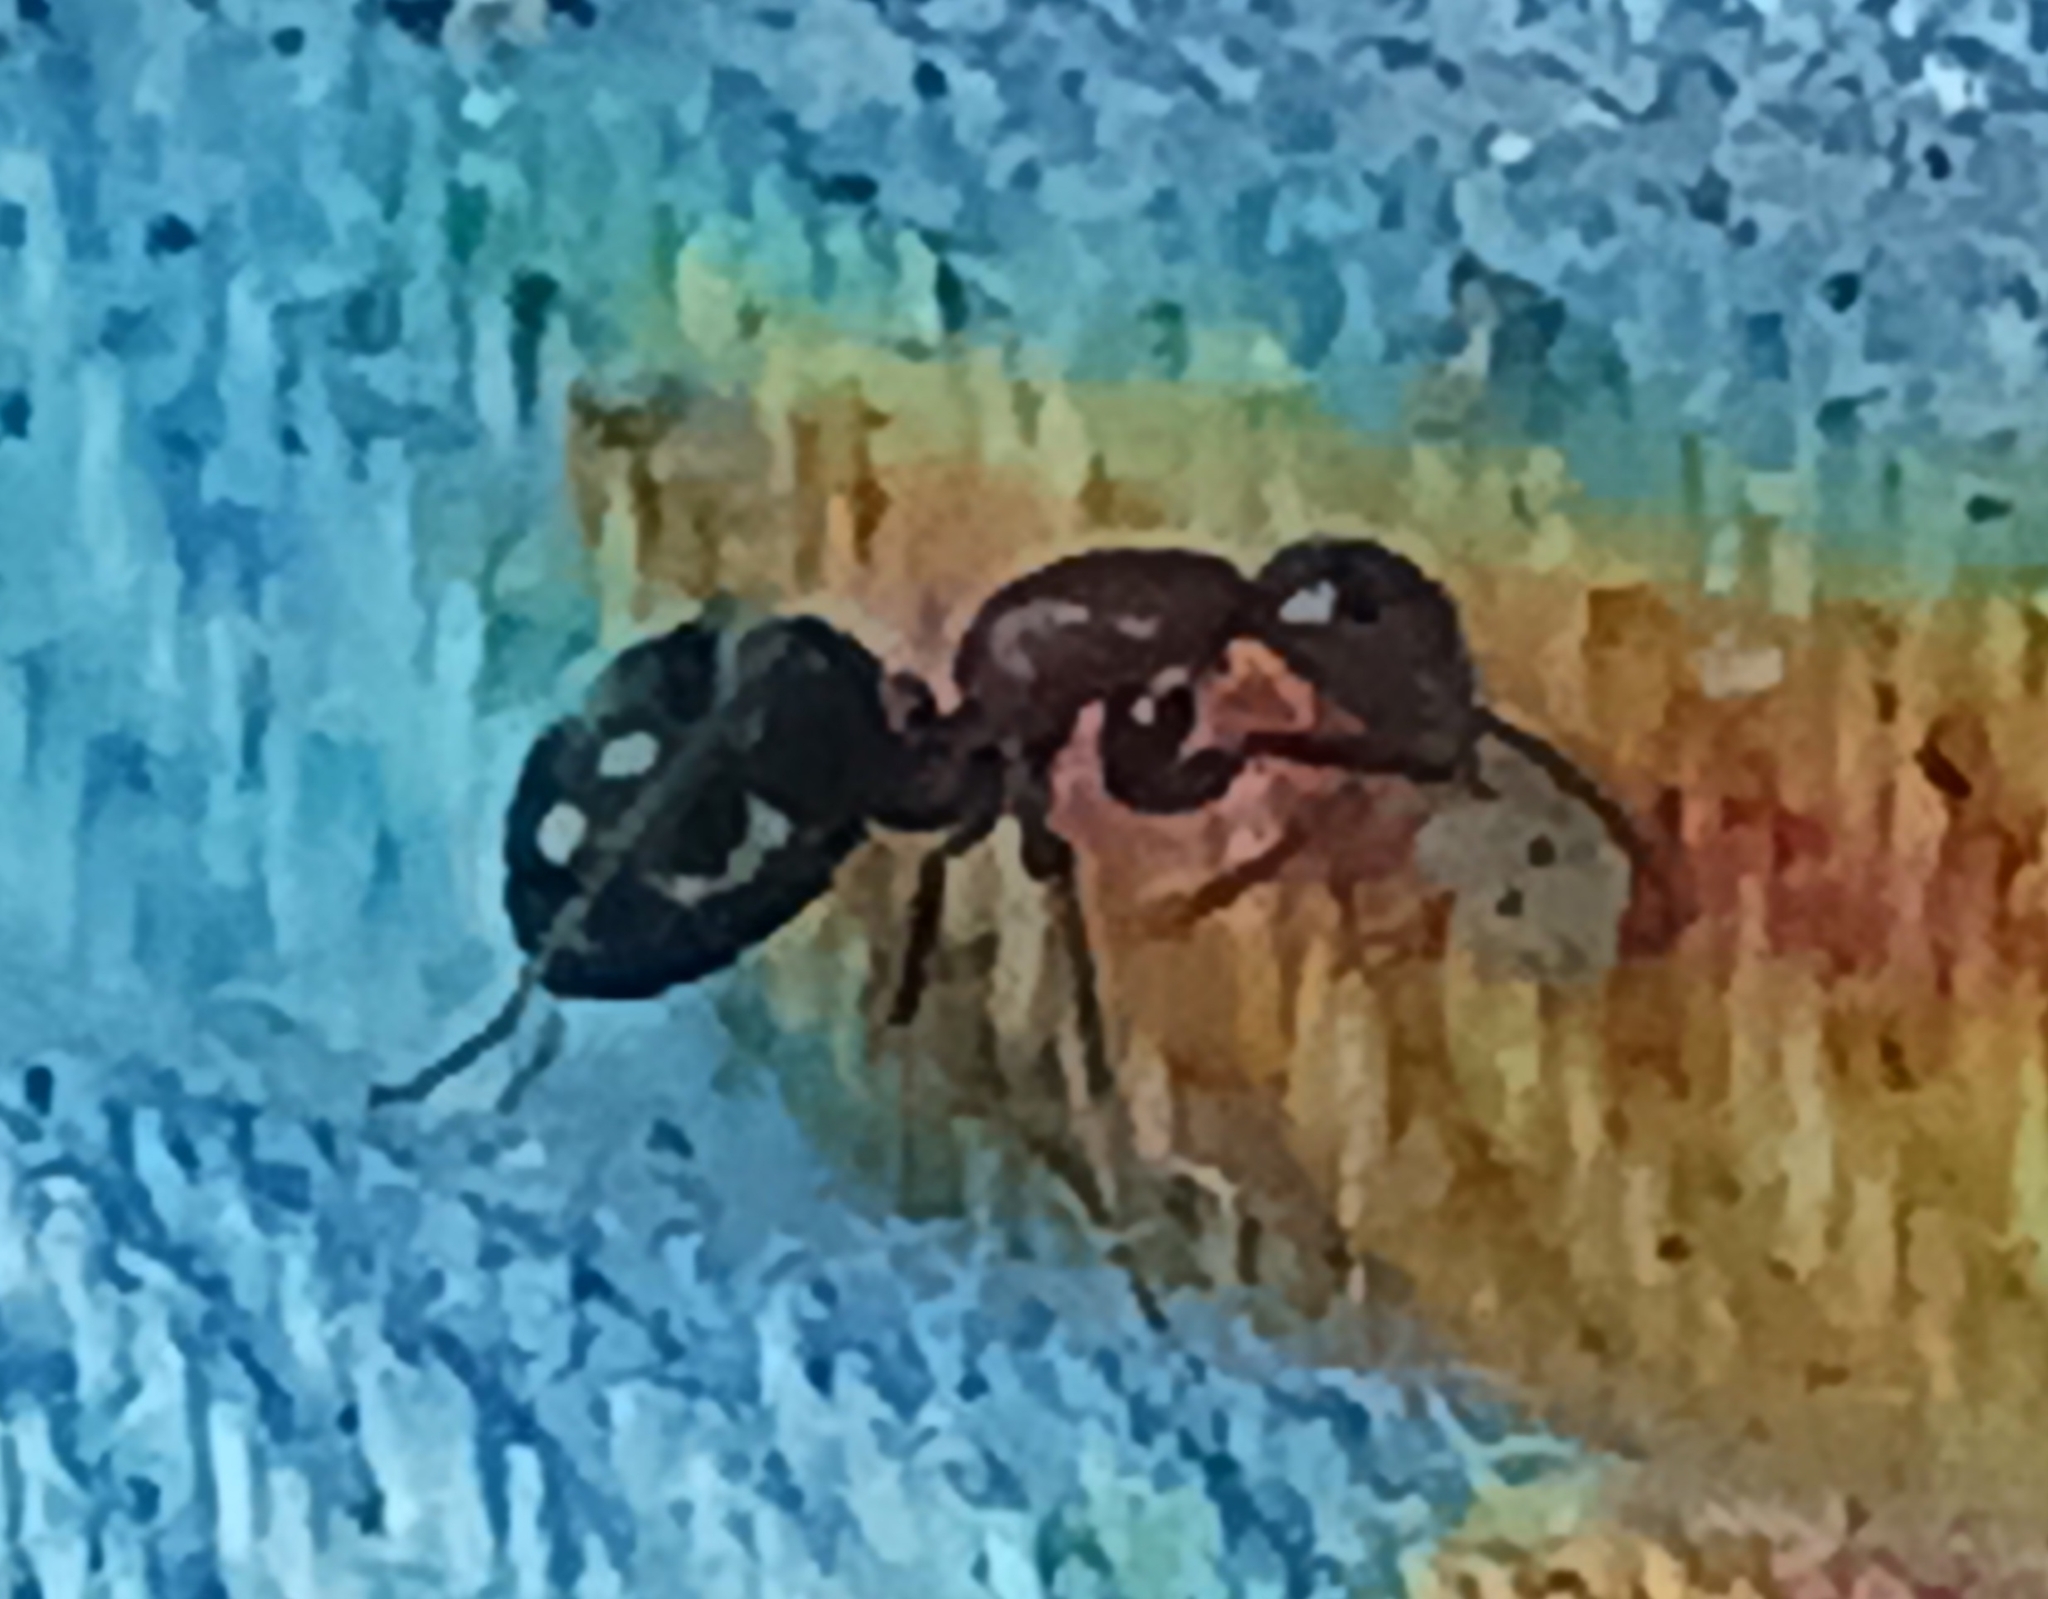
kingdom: Animalia
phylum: Arthropoda
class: Insecta
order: Hymenoptera
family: Formicidae
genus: Camponotus
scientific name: Camponotus planatus
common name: Compact carpenter ant
